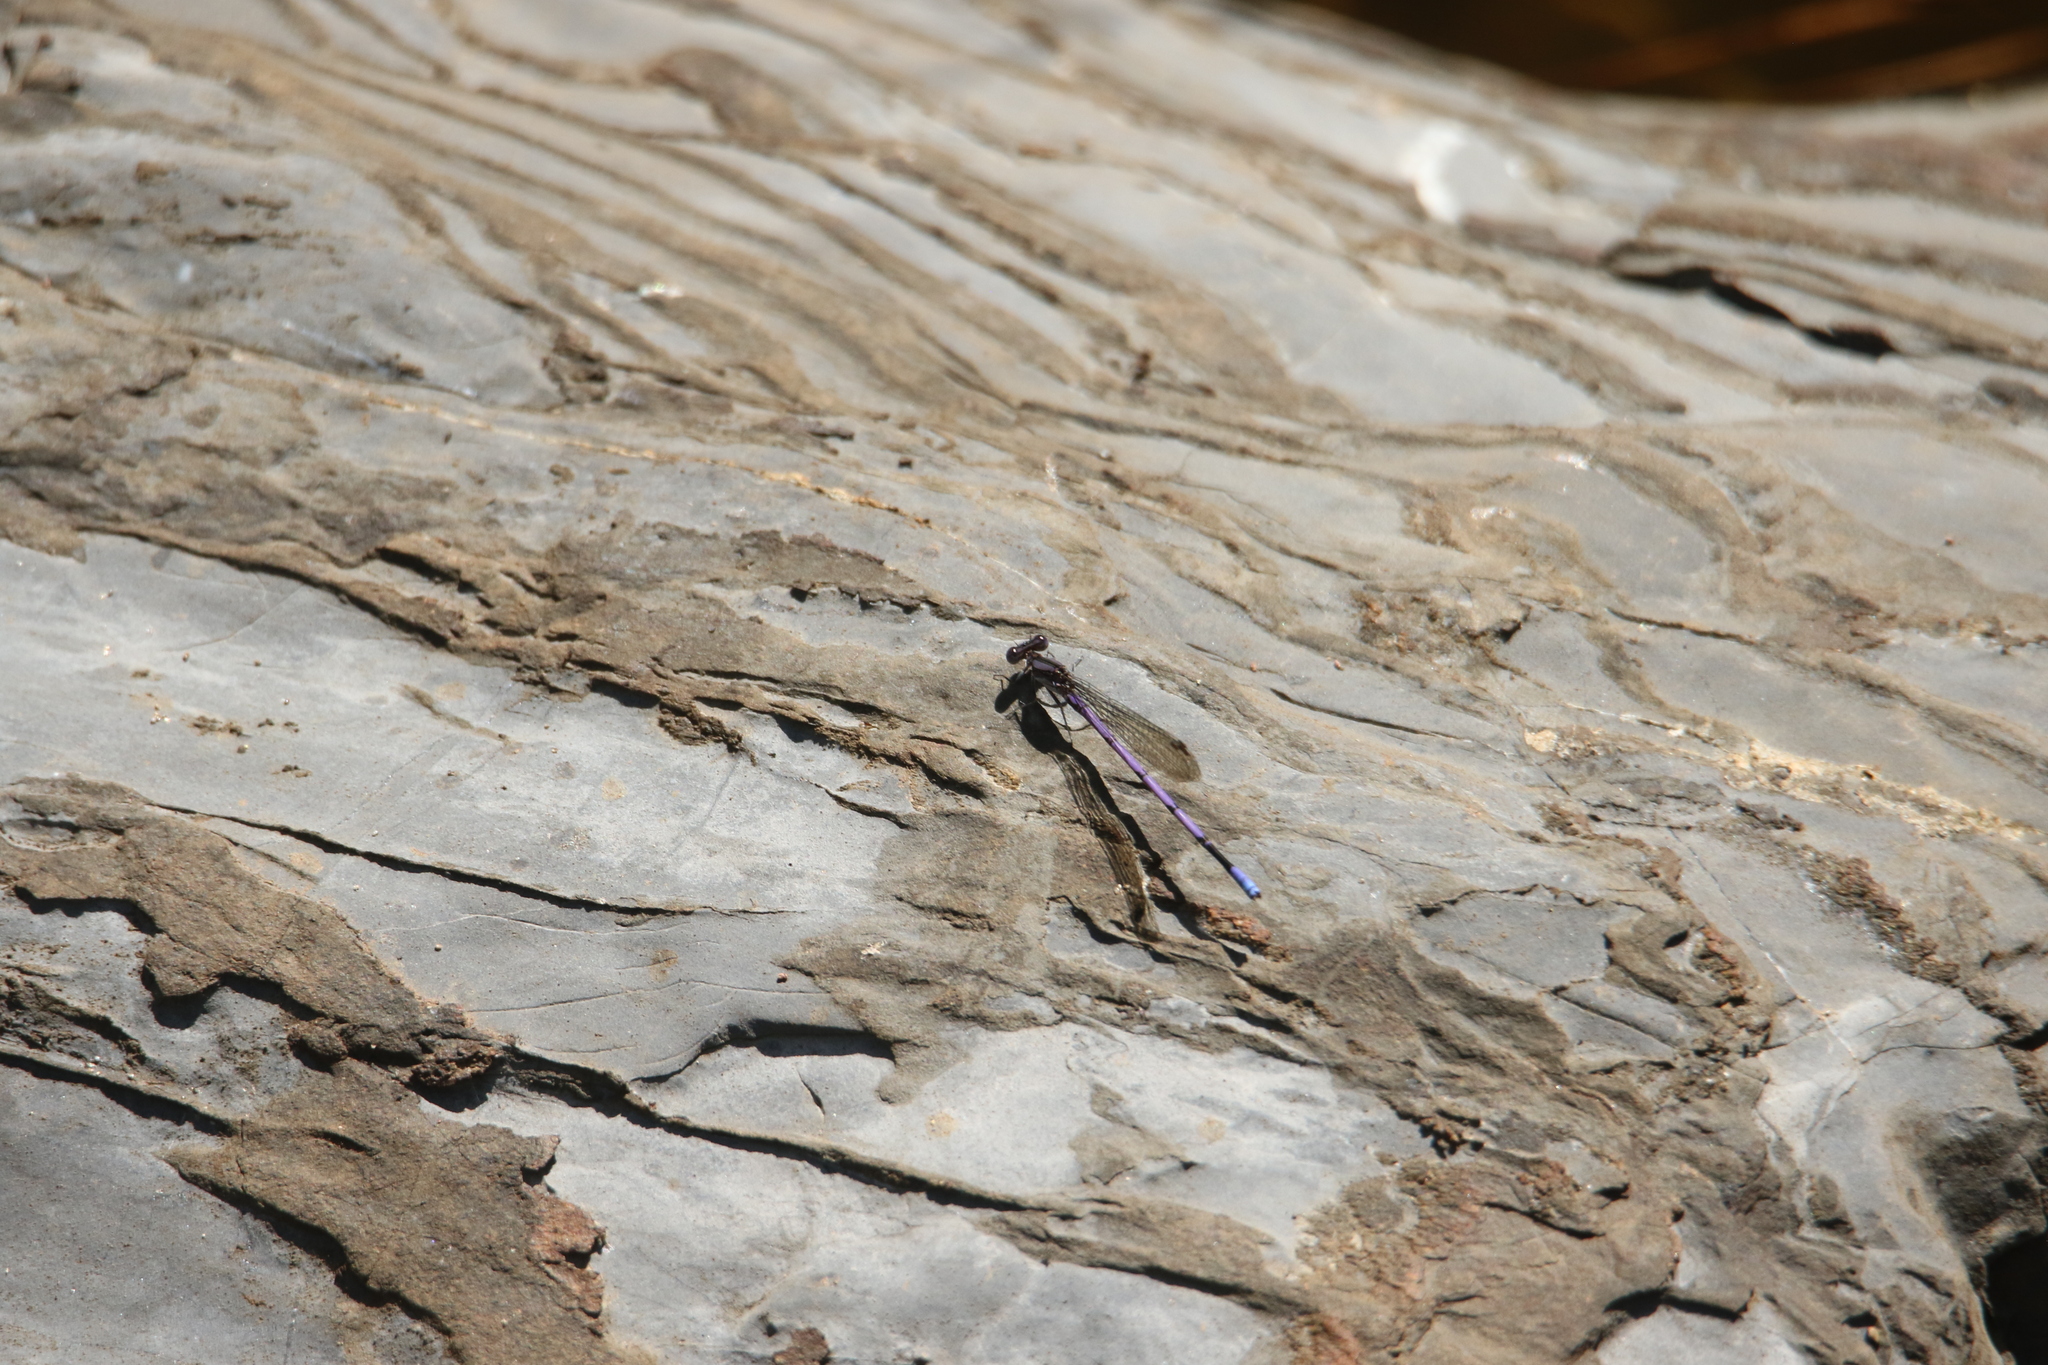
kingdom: Animalia
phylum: Arthropoda
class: Insecta
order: Odonata
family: Coenagrionidae
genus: Argia
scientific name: Argia fumipennis
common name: Variable dancer
